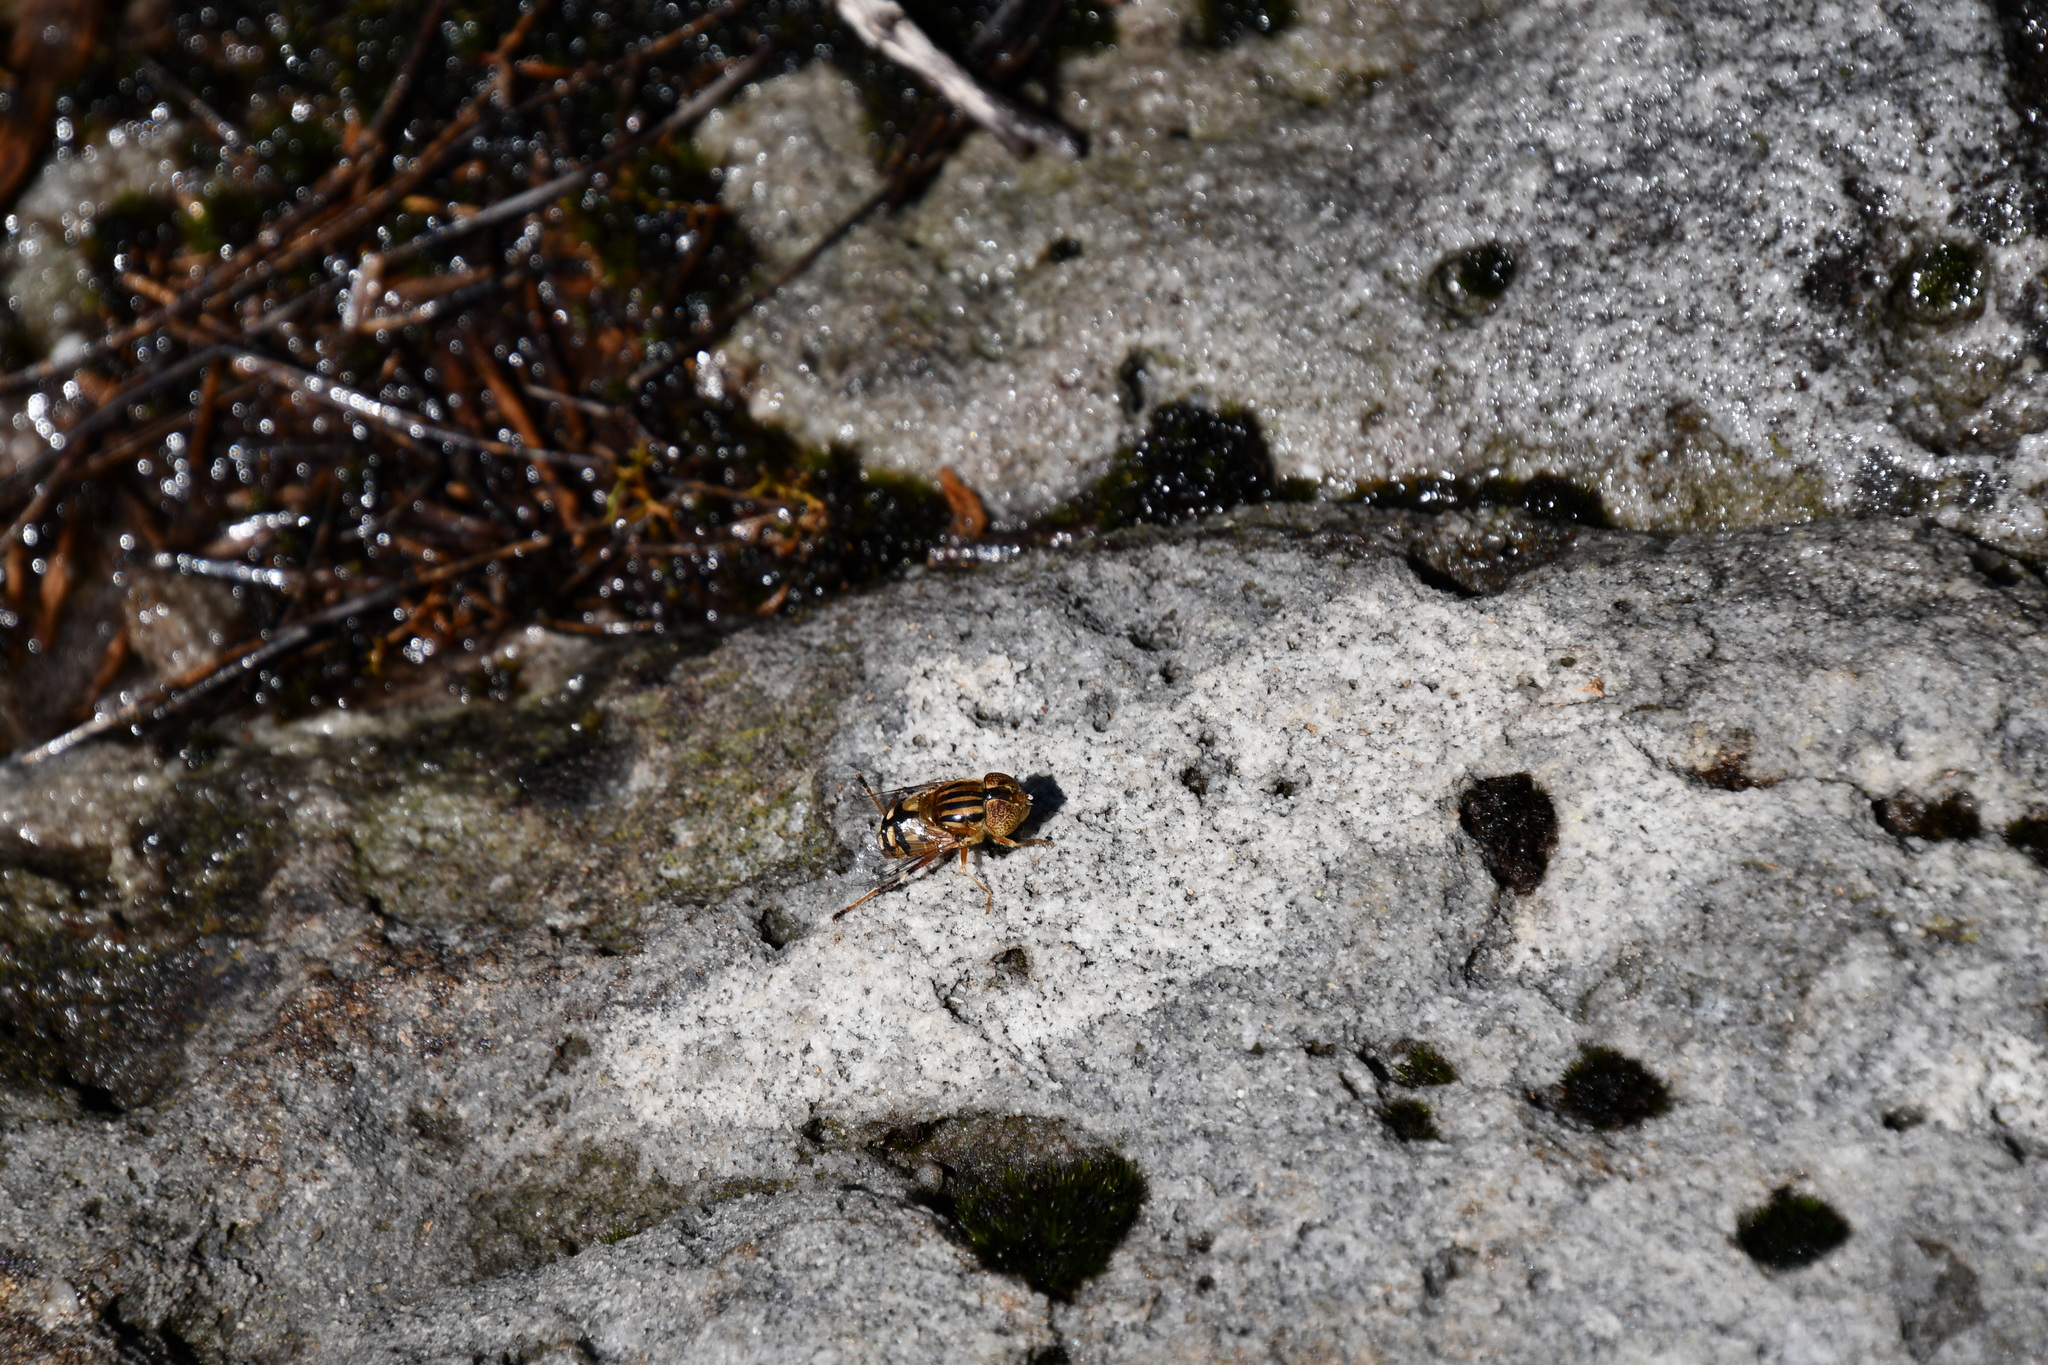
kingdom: Animalia
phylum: Arthropoda
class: Insecta
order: Diptera
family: Syrphidae
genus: Eristalinus
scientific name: Eristalinus punctulatus
